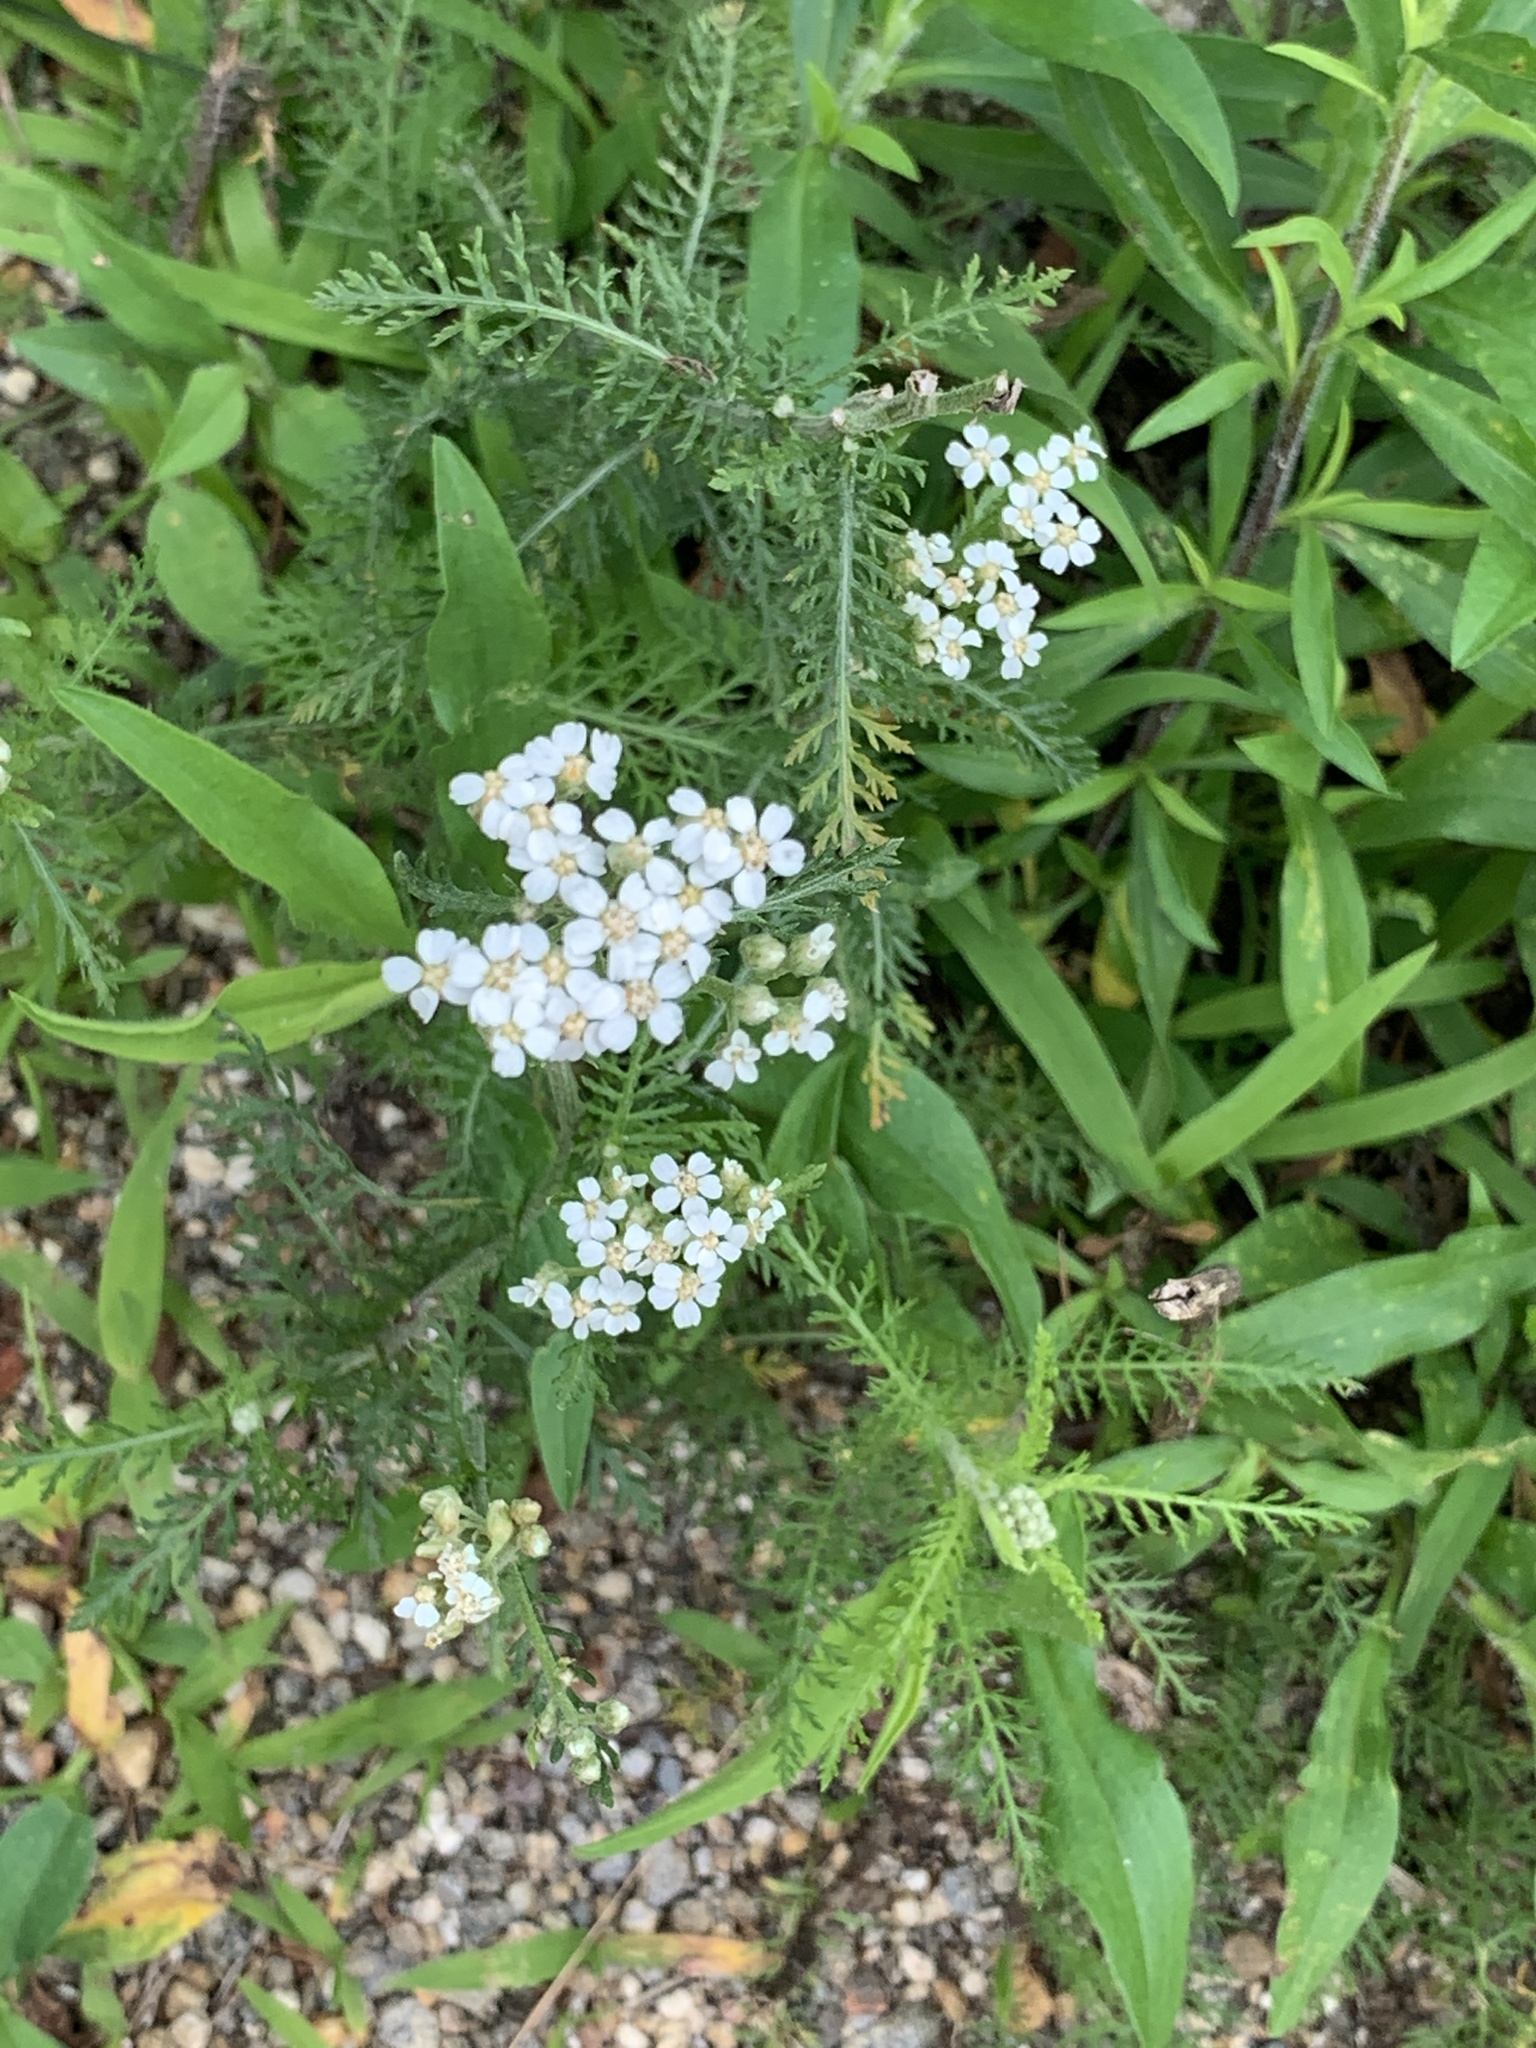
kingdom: Plantae
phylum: Tracheophyta
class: Magnoliopsida
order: Asterales
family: Asteraceae
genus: Achillea
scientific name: Achillea millefolium
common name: Yarrow
